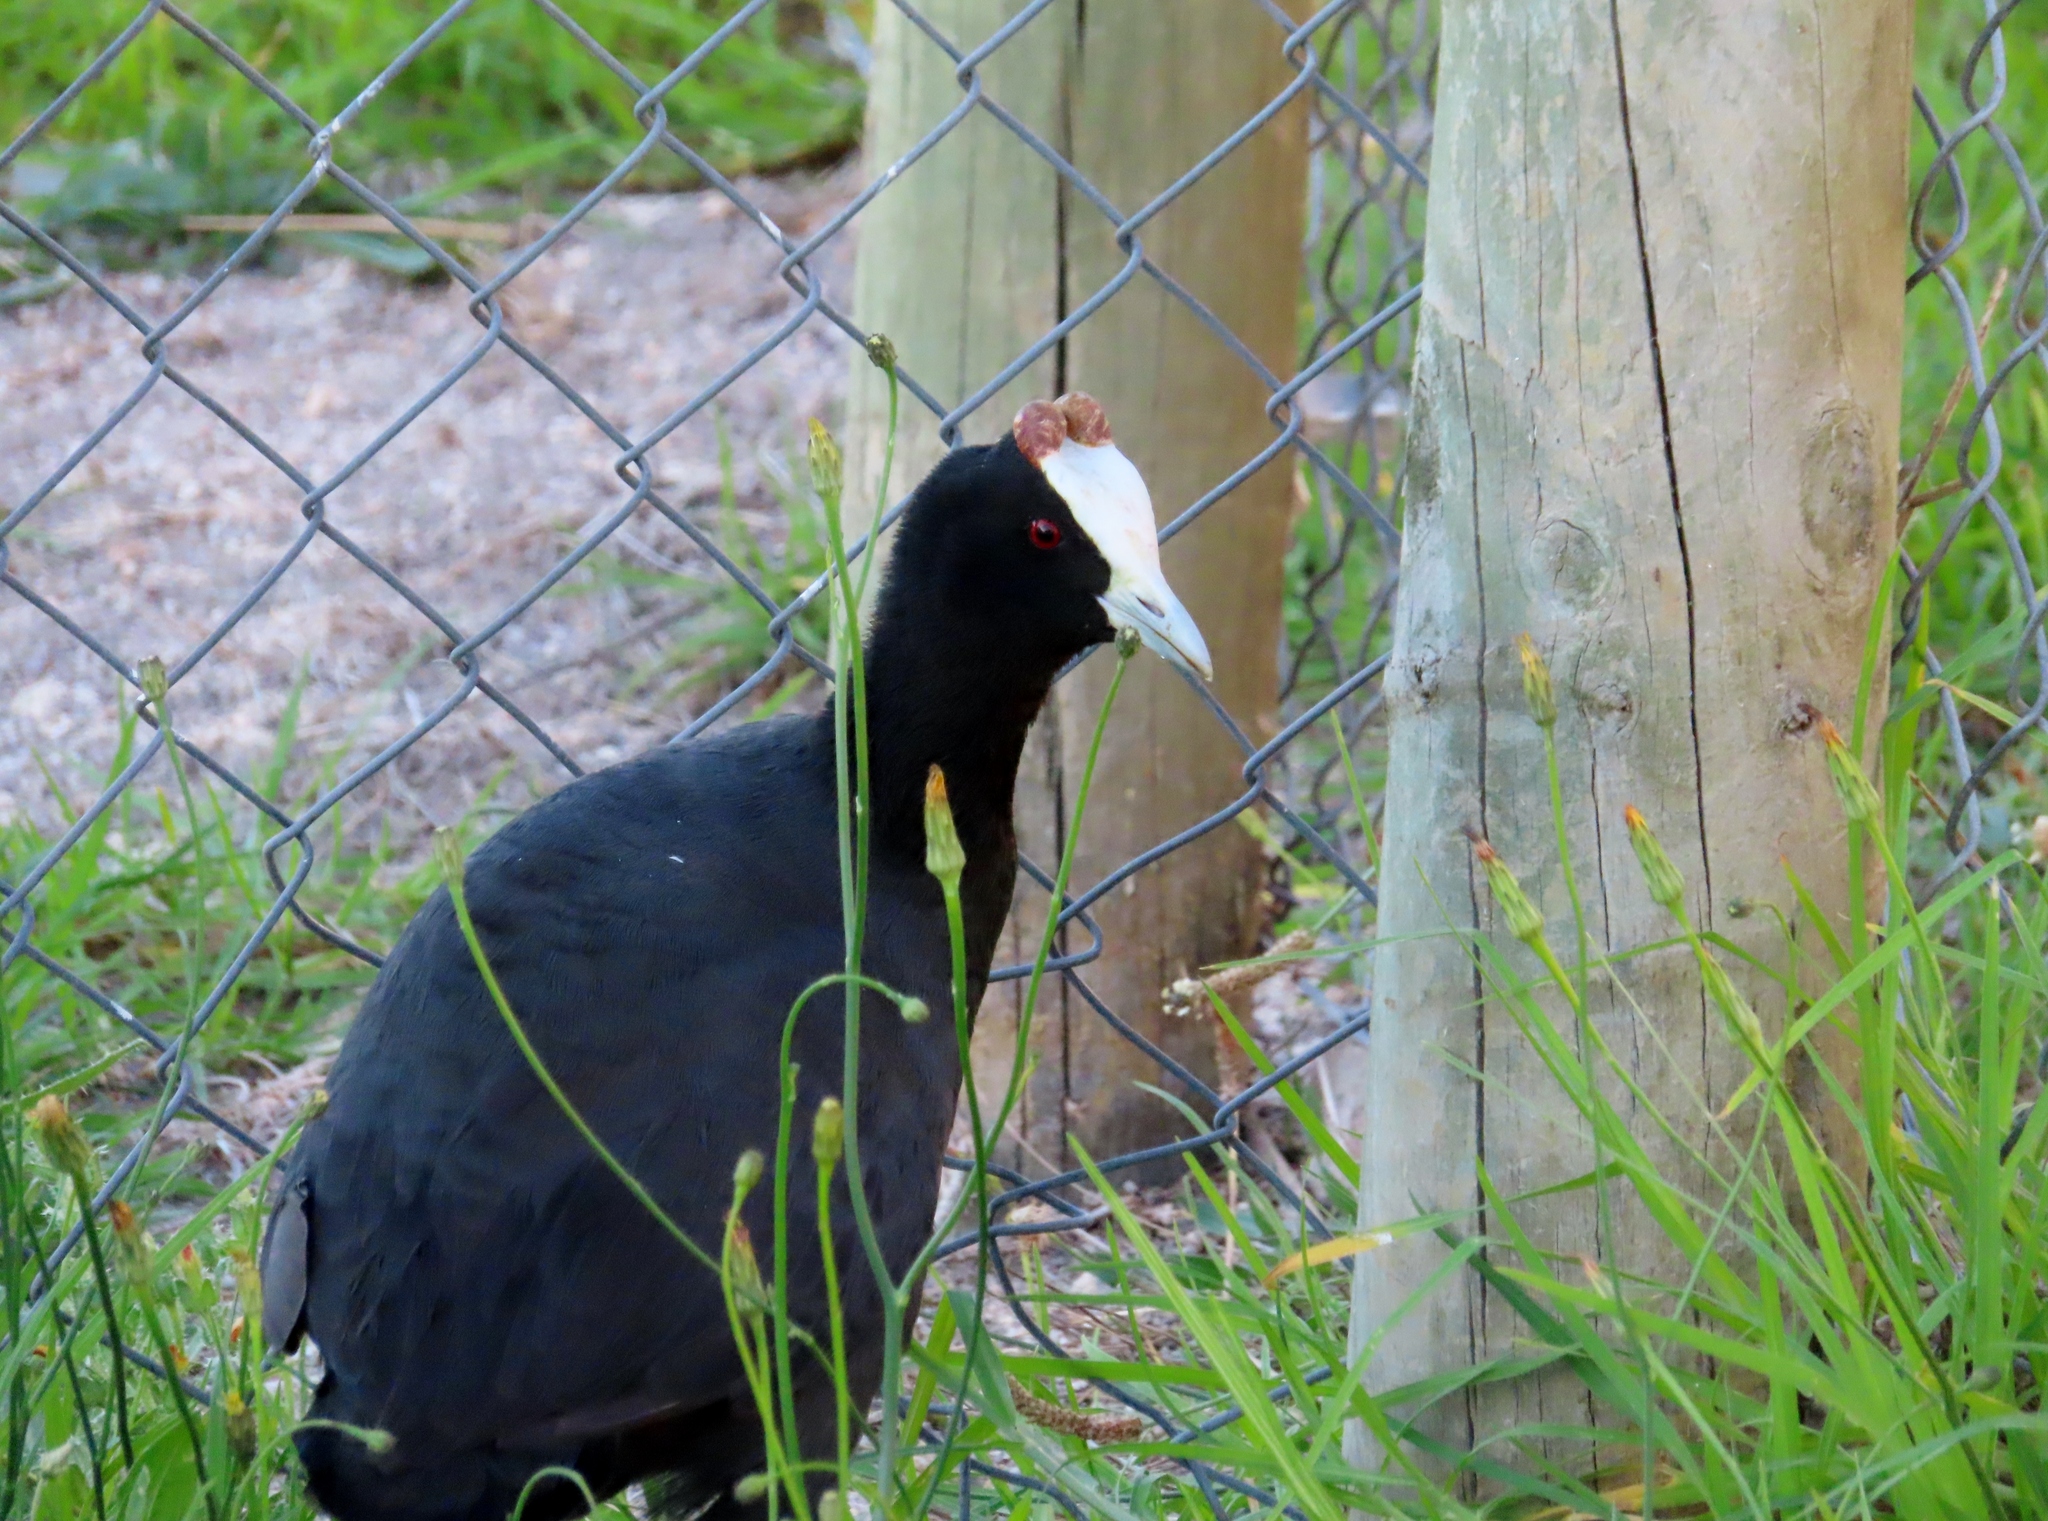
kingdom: Animalia
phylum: Chordata
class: Aves
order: Gruiformes
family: Rallidae
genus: Fulica
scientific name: Fulica cristata
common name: Red-knobbed coot
